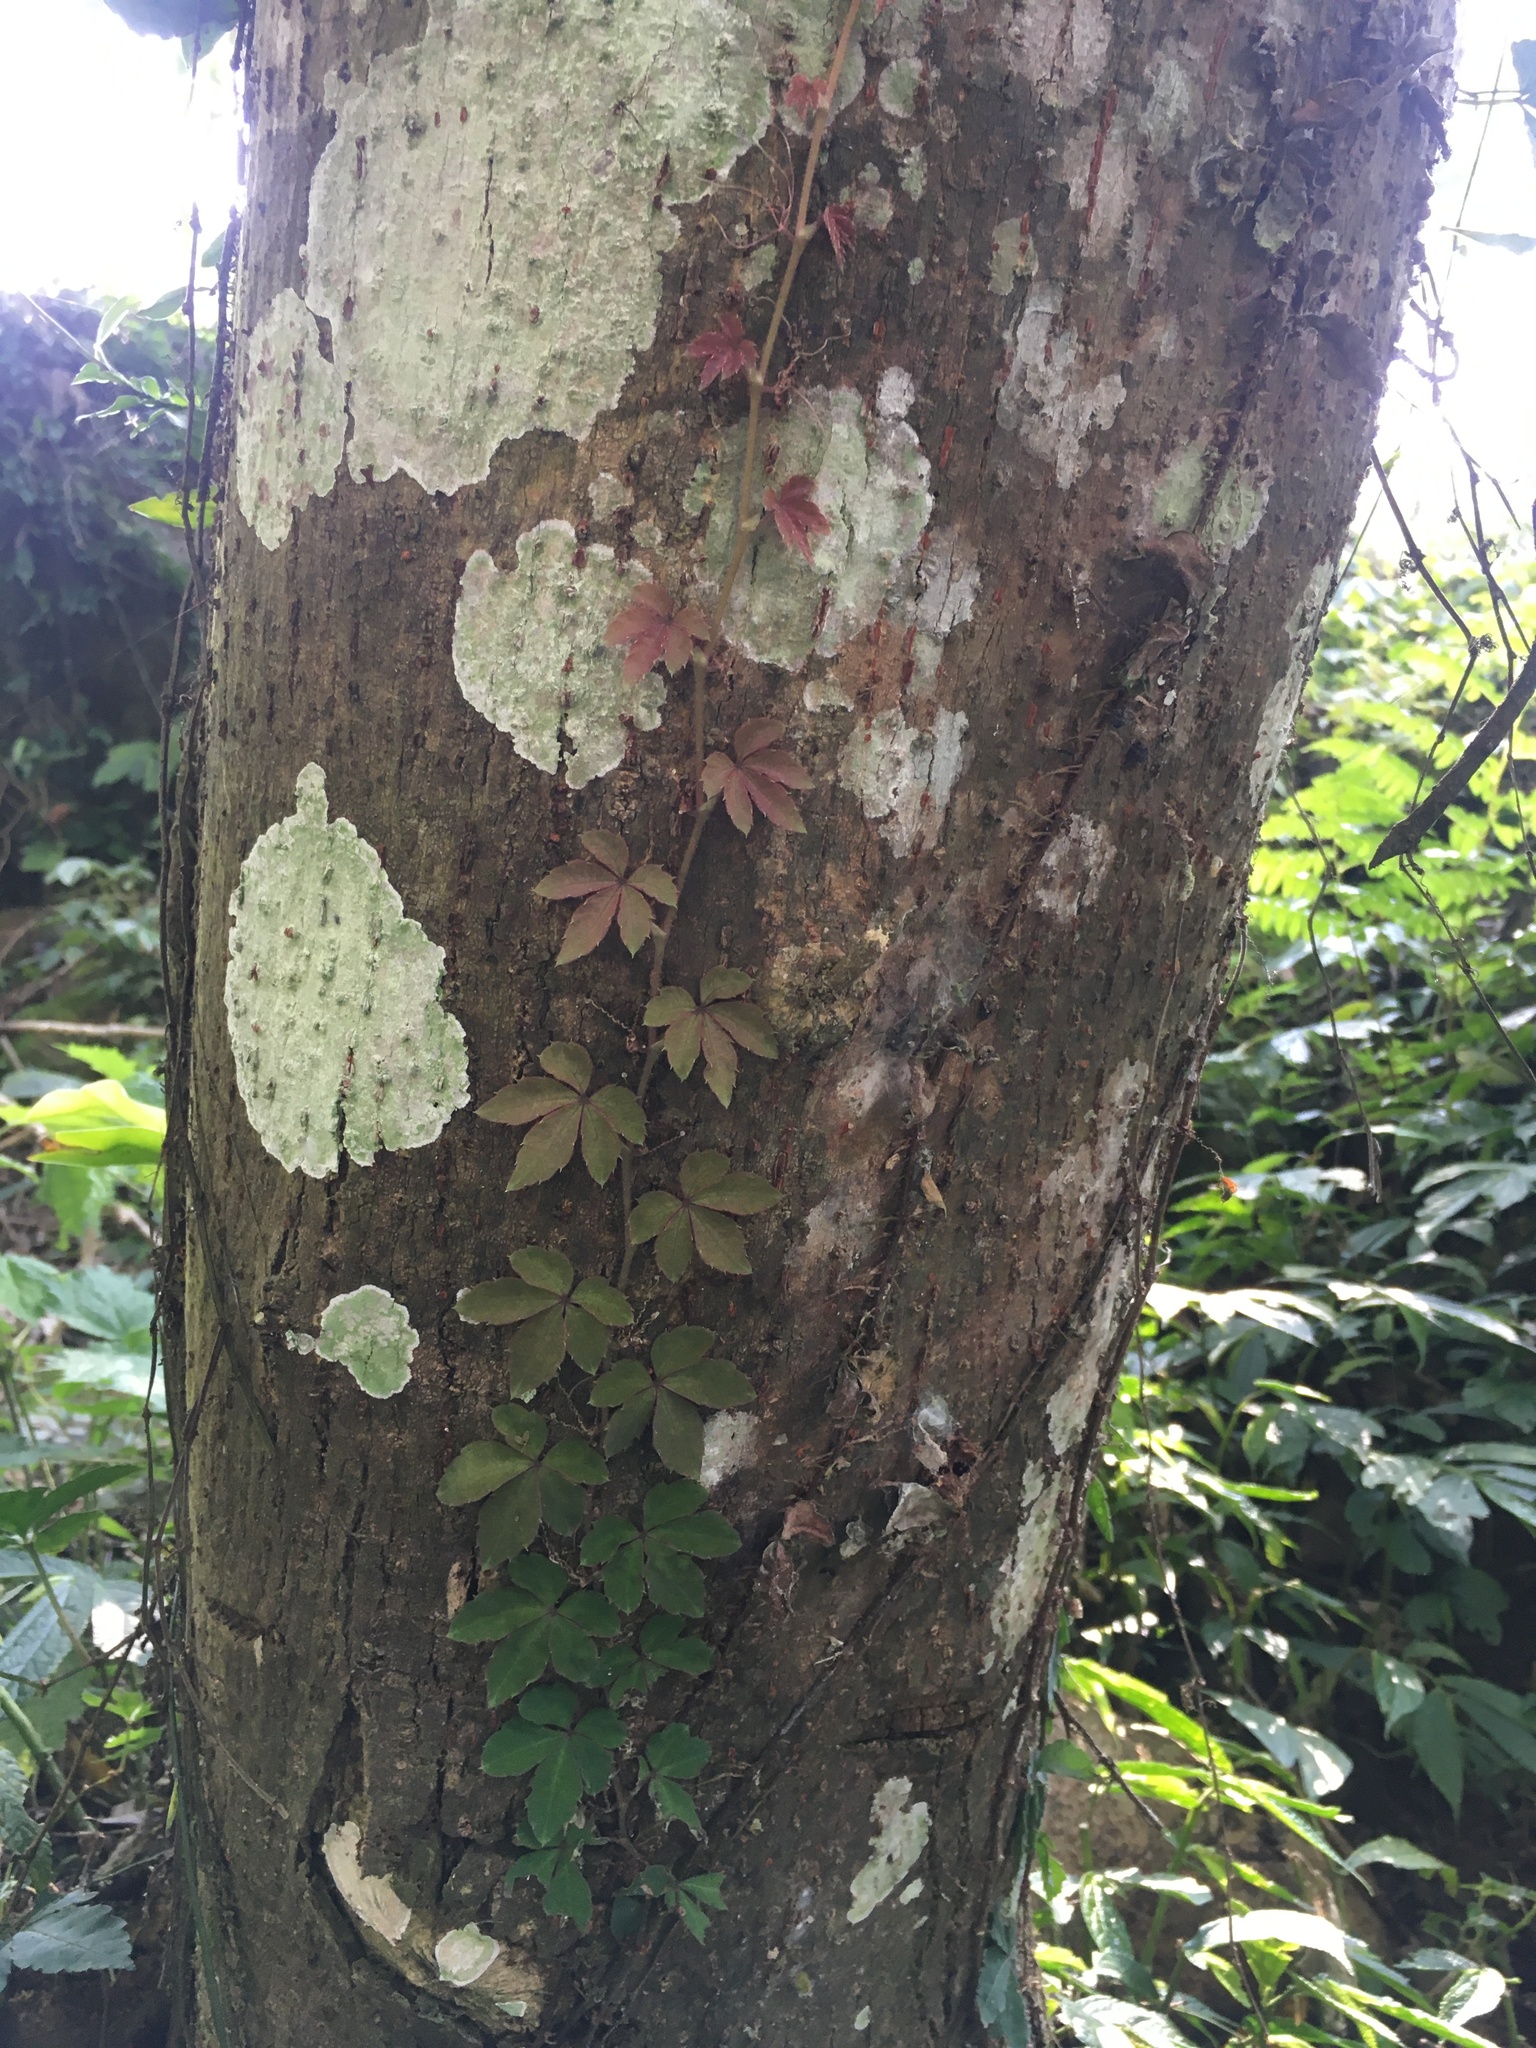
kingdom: Plantae
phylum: Tracheophyta
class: Magnoliopsida
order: Vitales
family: Vitaceae
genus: Tetrastigma
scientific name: Tetrastigma obtectum
